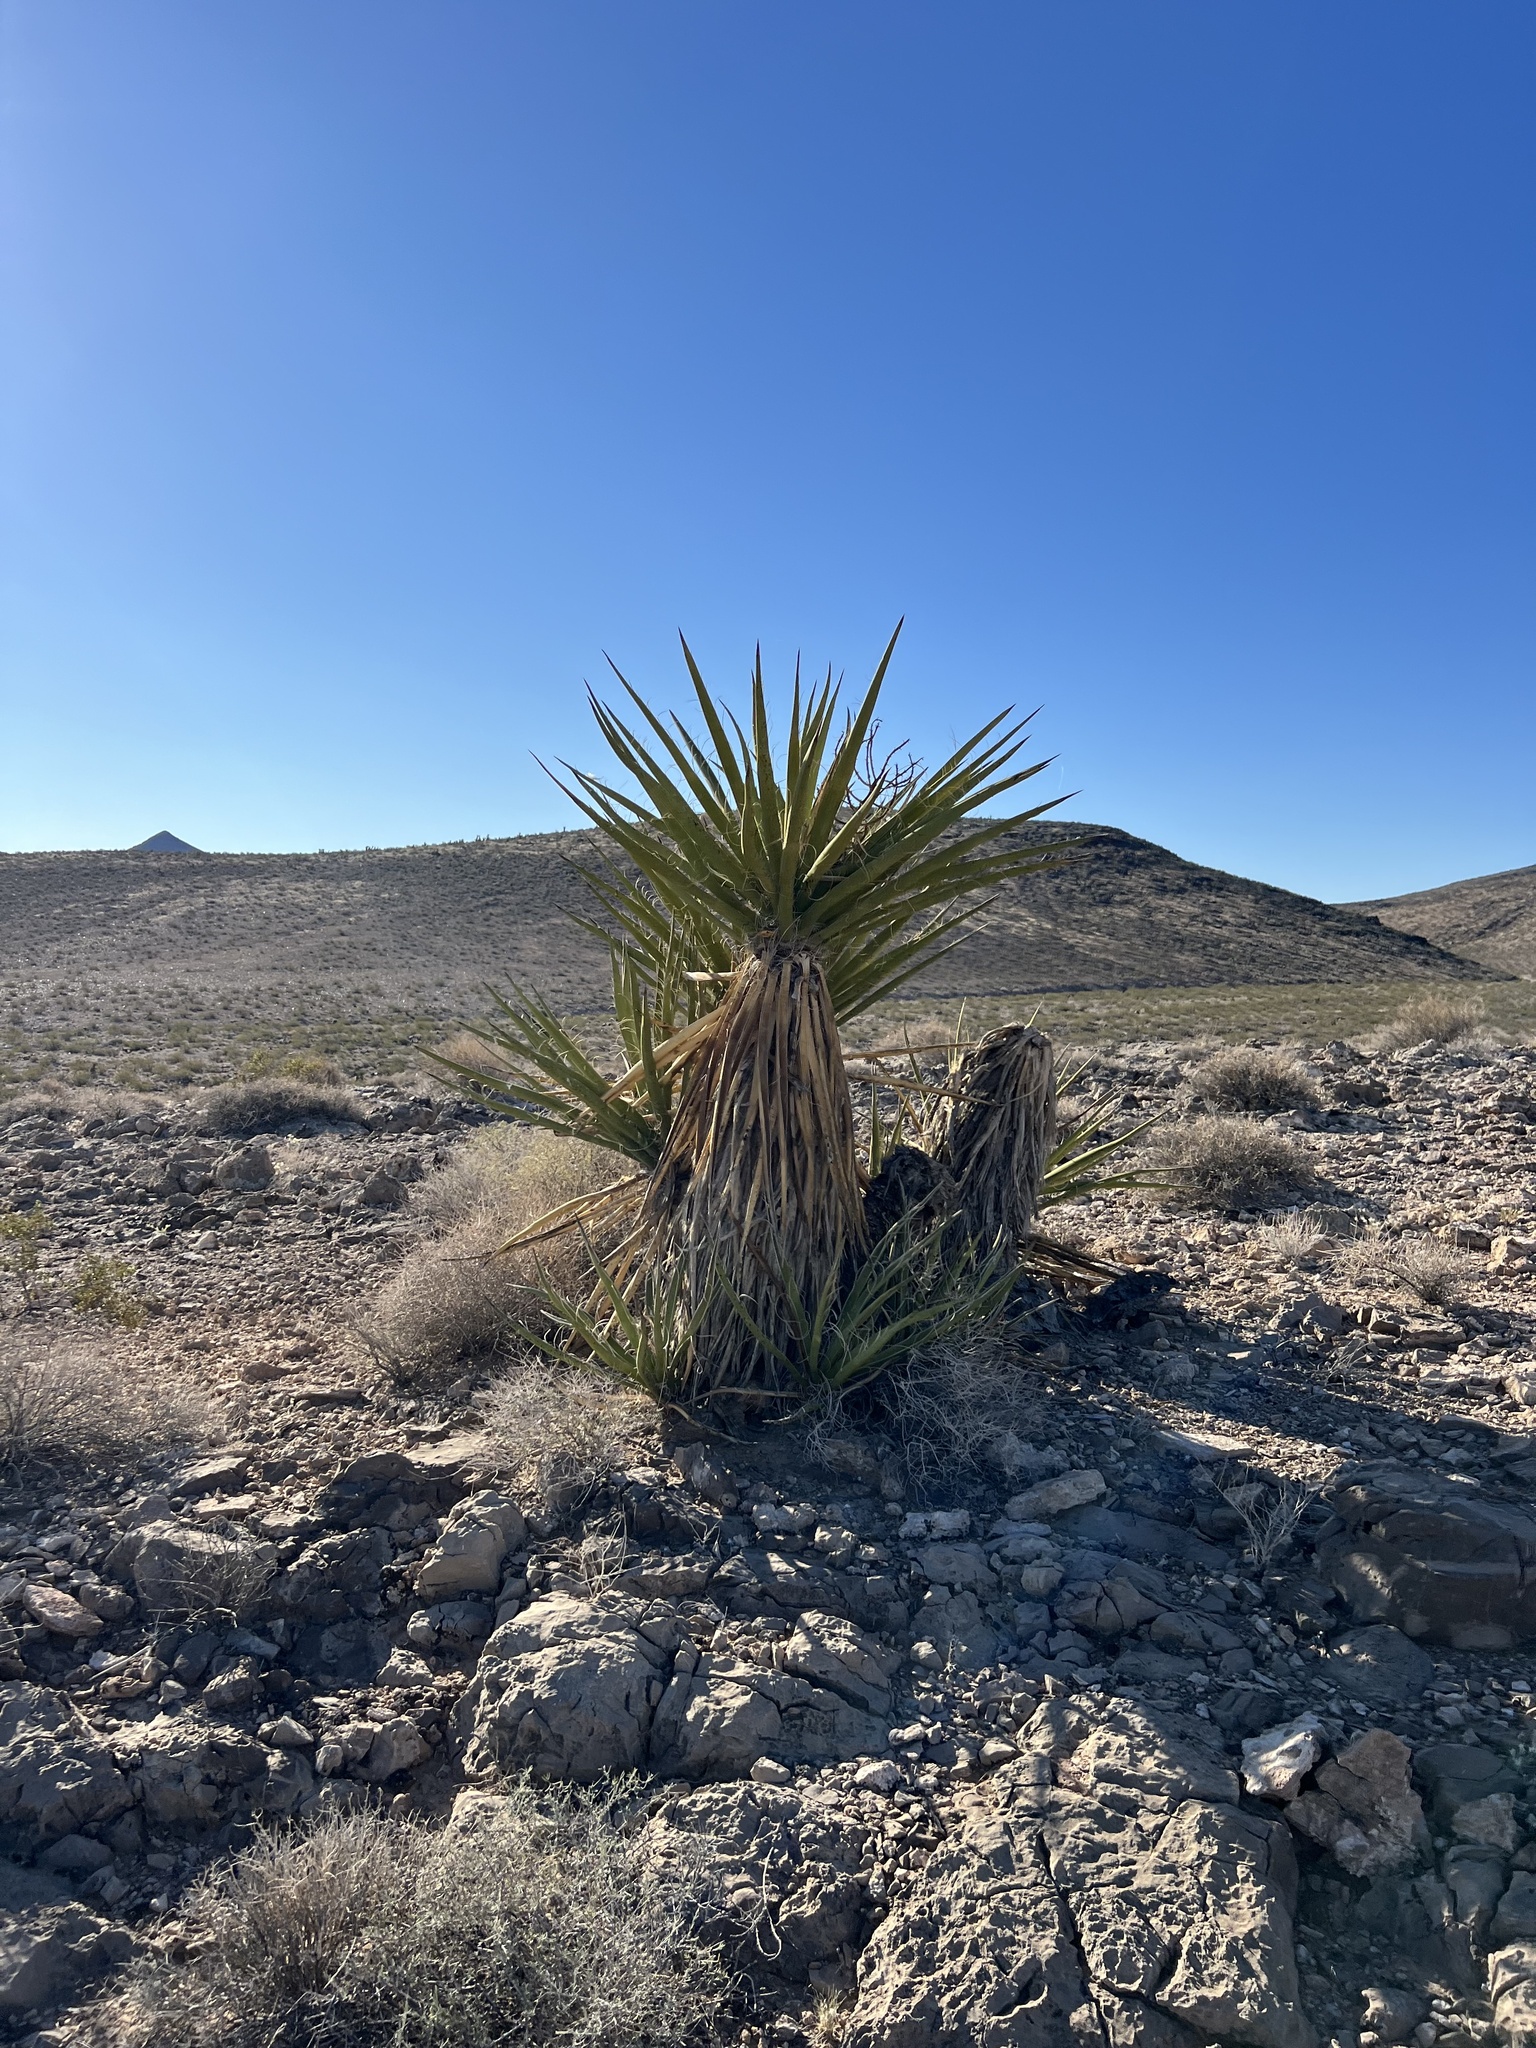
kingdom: Plantae
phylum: Tracheophyta
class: Liliopsida
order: Asparagales
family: Asparagaceae
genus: Yucca
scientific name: Yucca schidigera
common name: Mojave yucca
